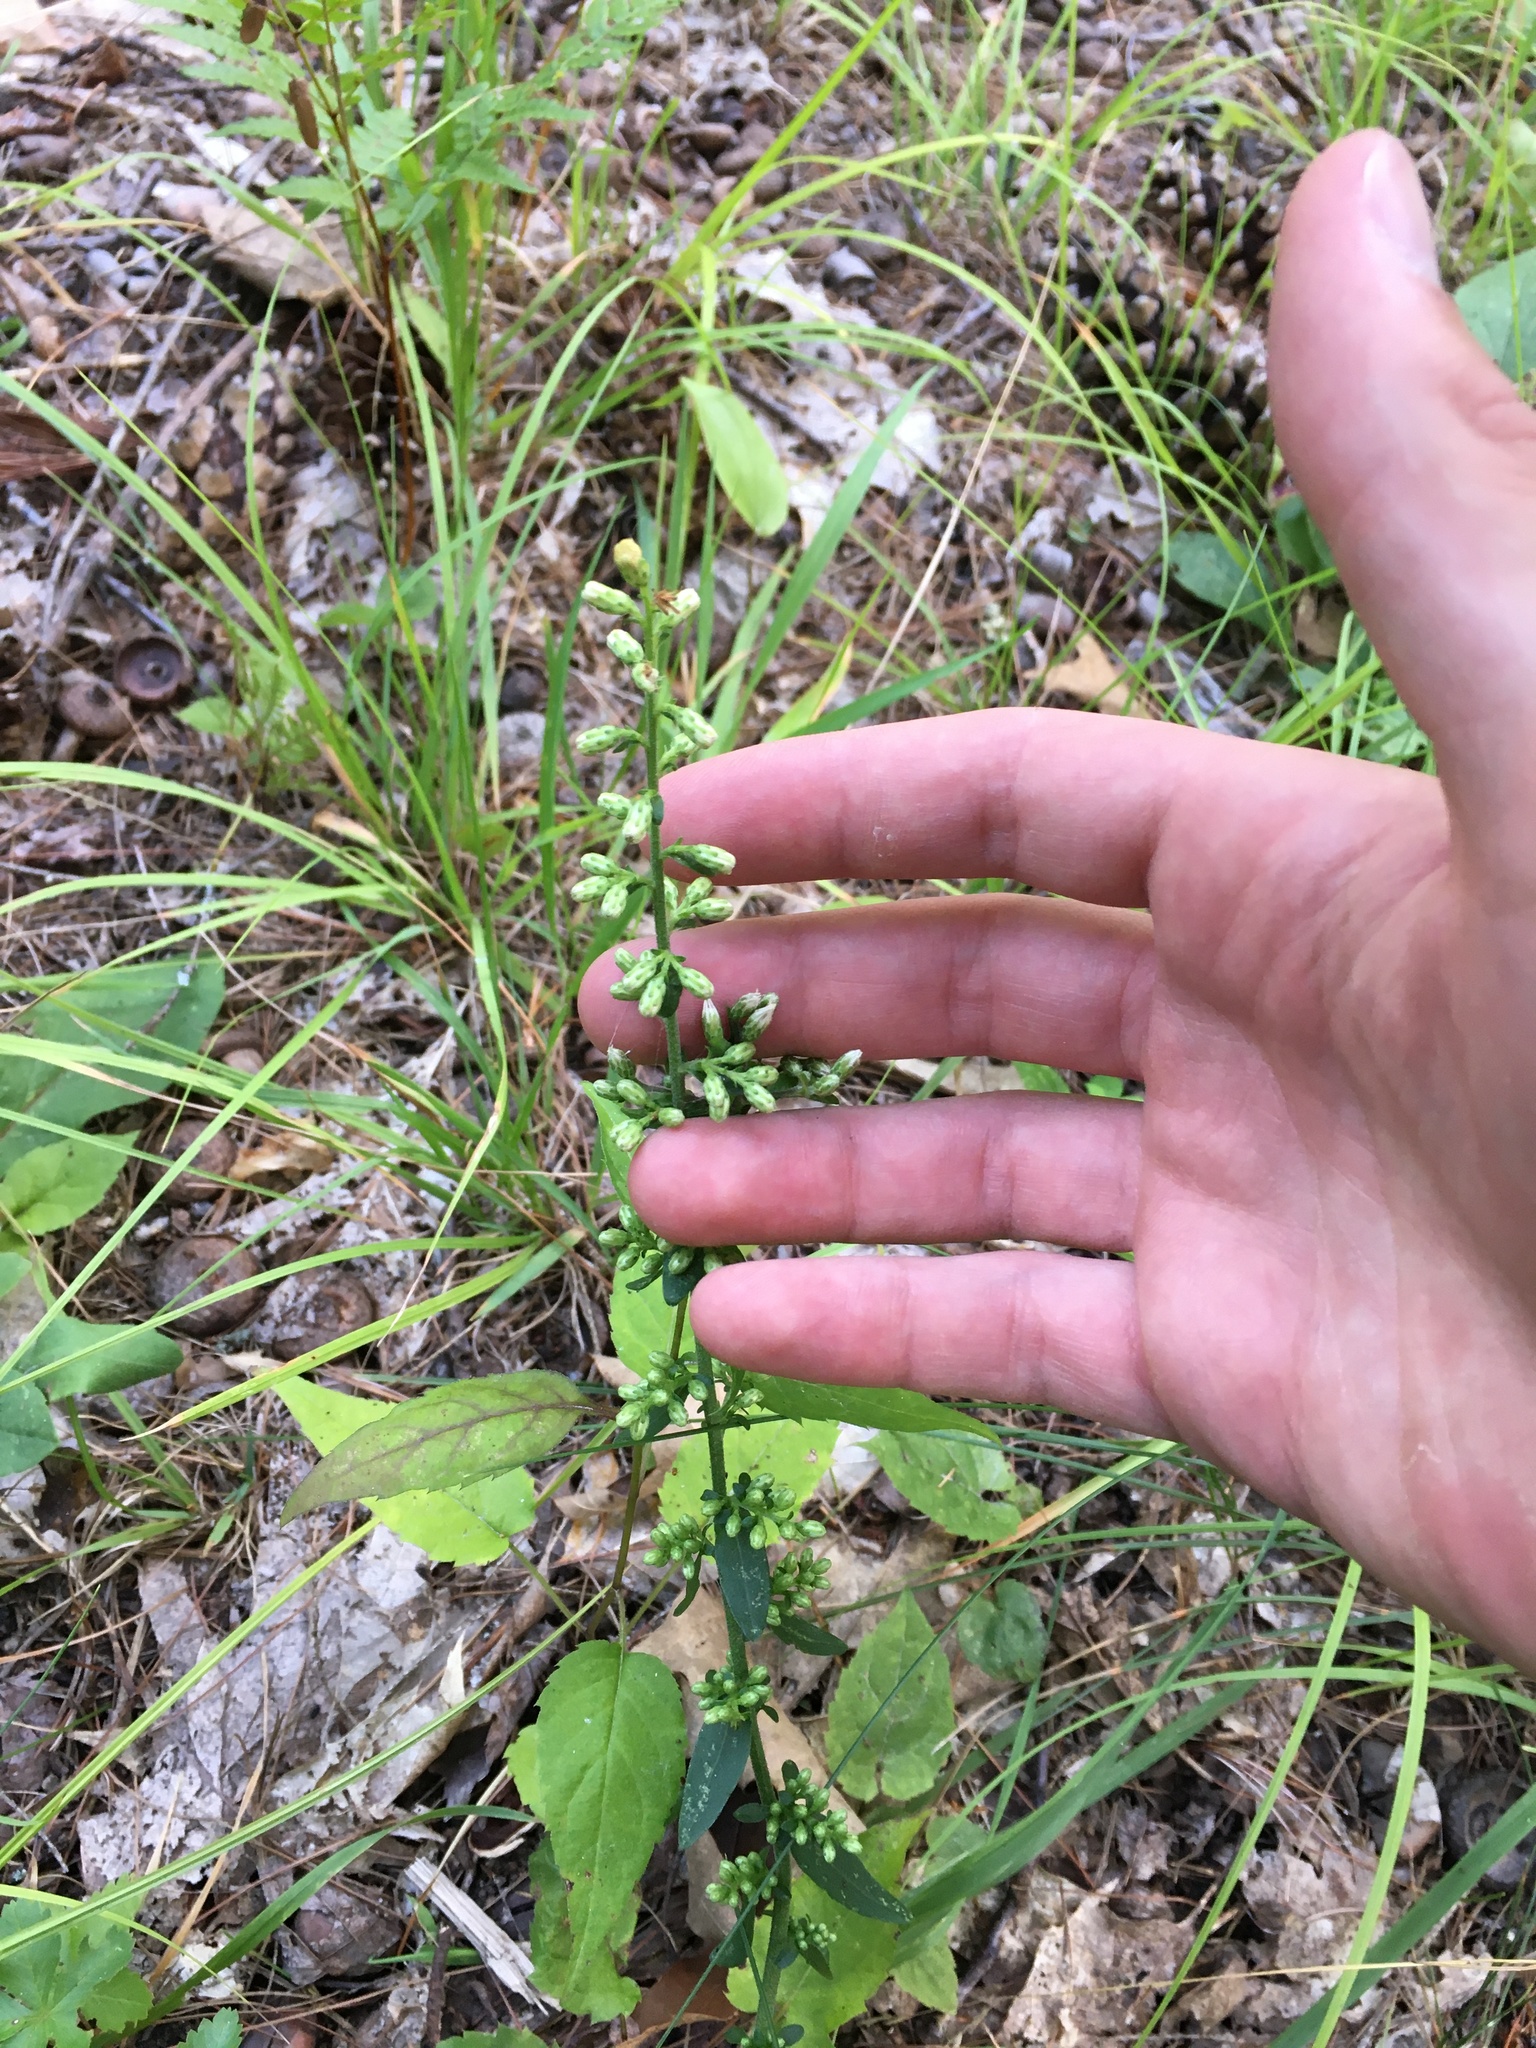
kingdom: Plantae
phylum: Tracheophyta
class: Magnoliopsida
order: Asterales
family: Asteraceae
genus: Solidago
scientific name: Solidago bicolor
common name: Silverrod
